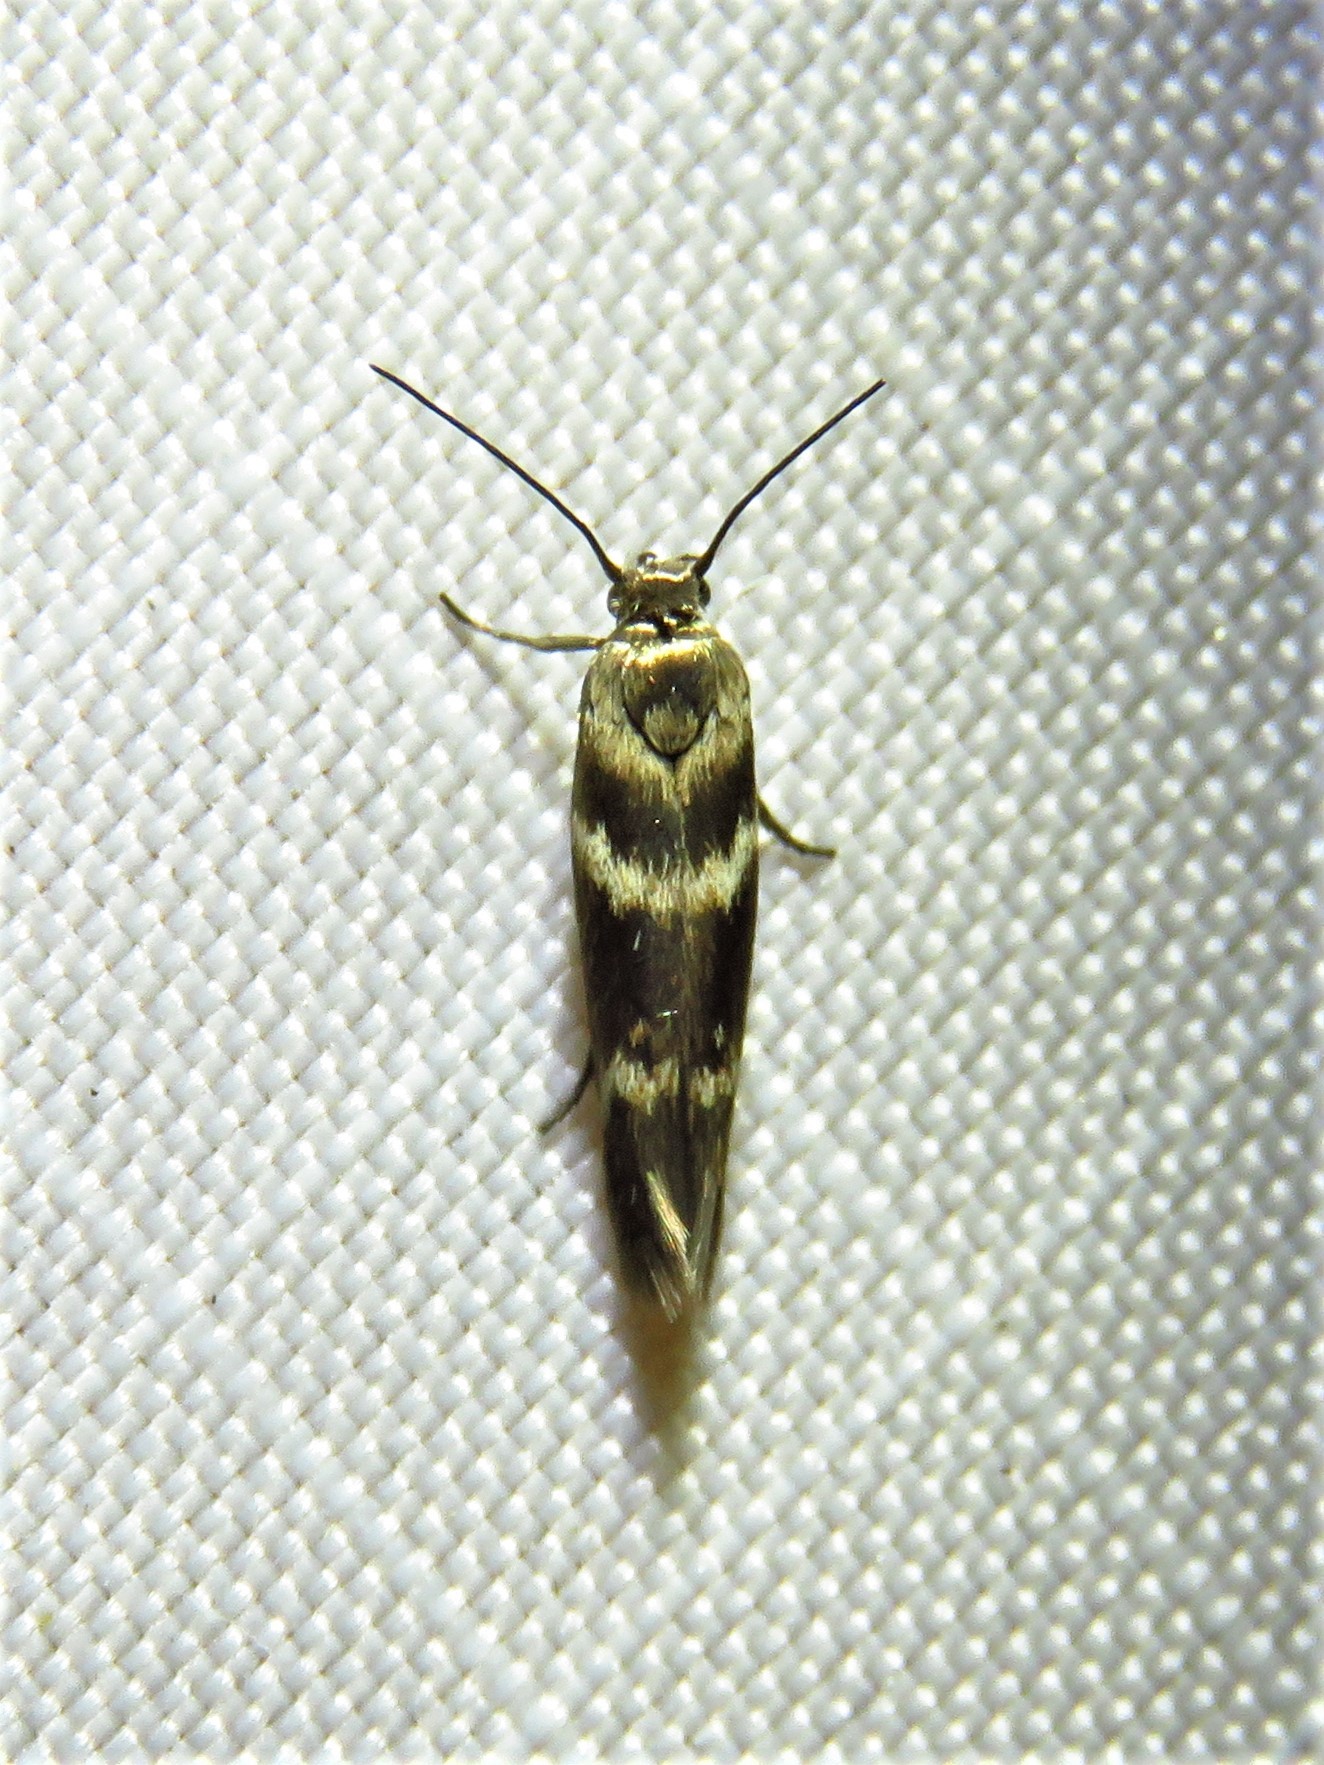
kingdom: Animalia
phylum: Arthropoda
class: Insecta
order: Lepidoptera
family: Scythrididae
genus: Scythris
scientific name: Scythris trivinctella
